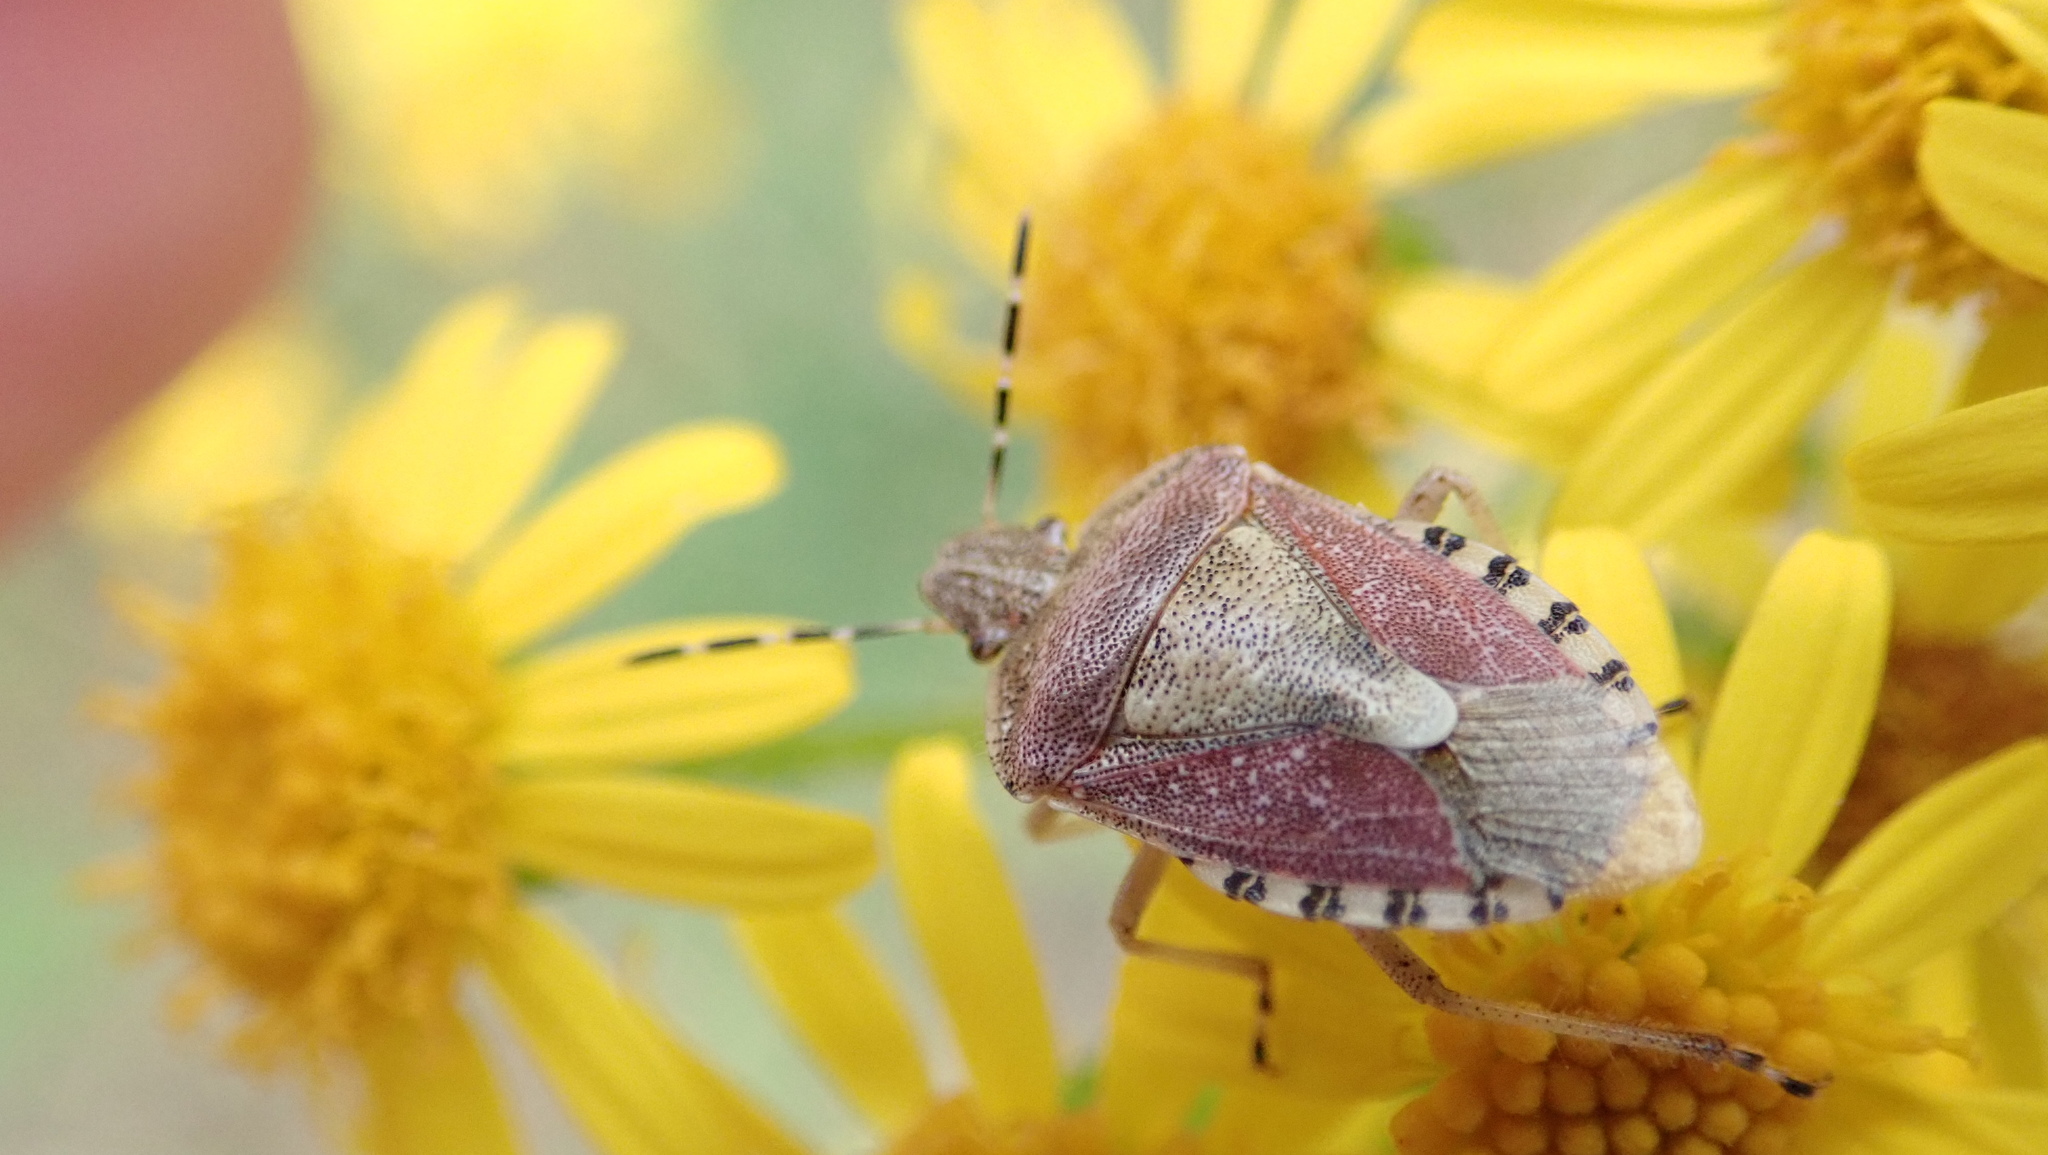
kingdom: Animalia
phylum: Arthropoda
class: Insecta
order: Hemiptera
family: Pentatomidae
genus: Dolycoris
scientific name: Dolycoris baccarum
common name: Sloe bug
